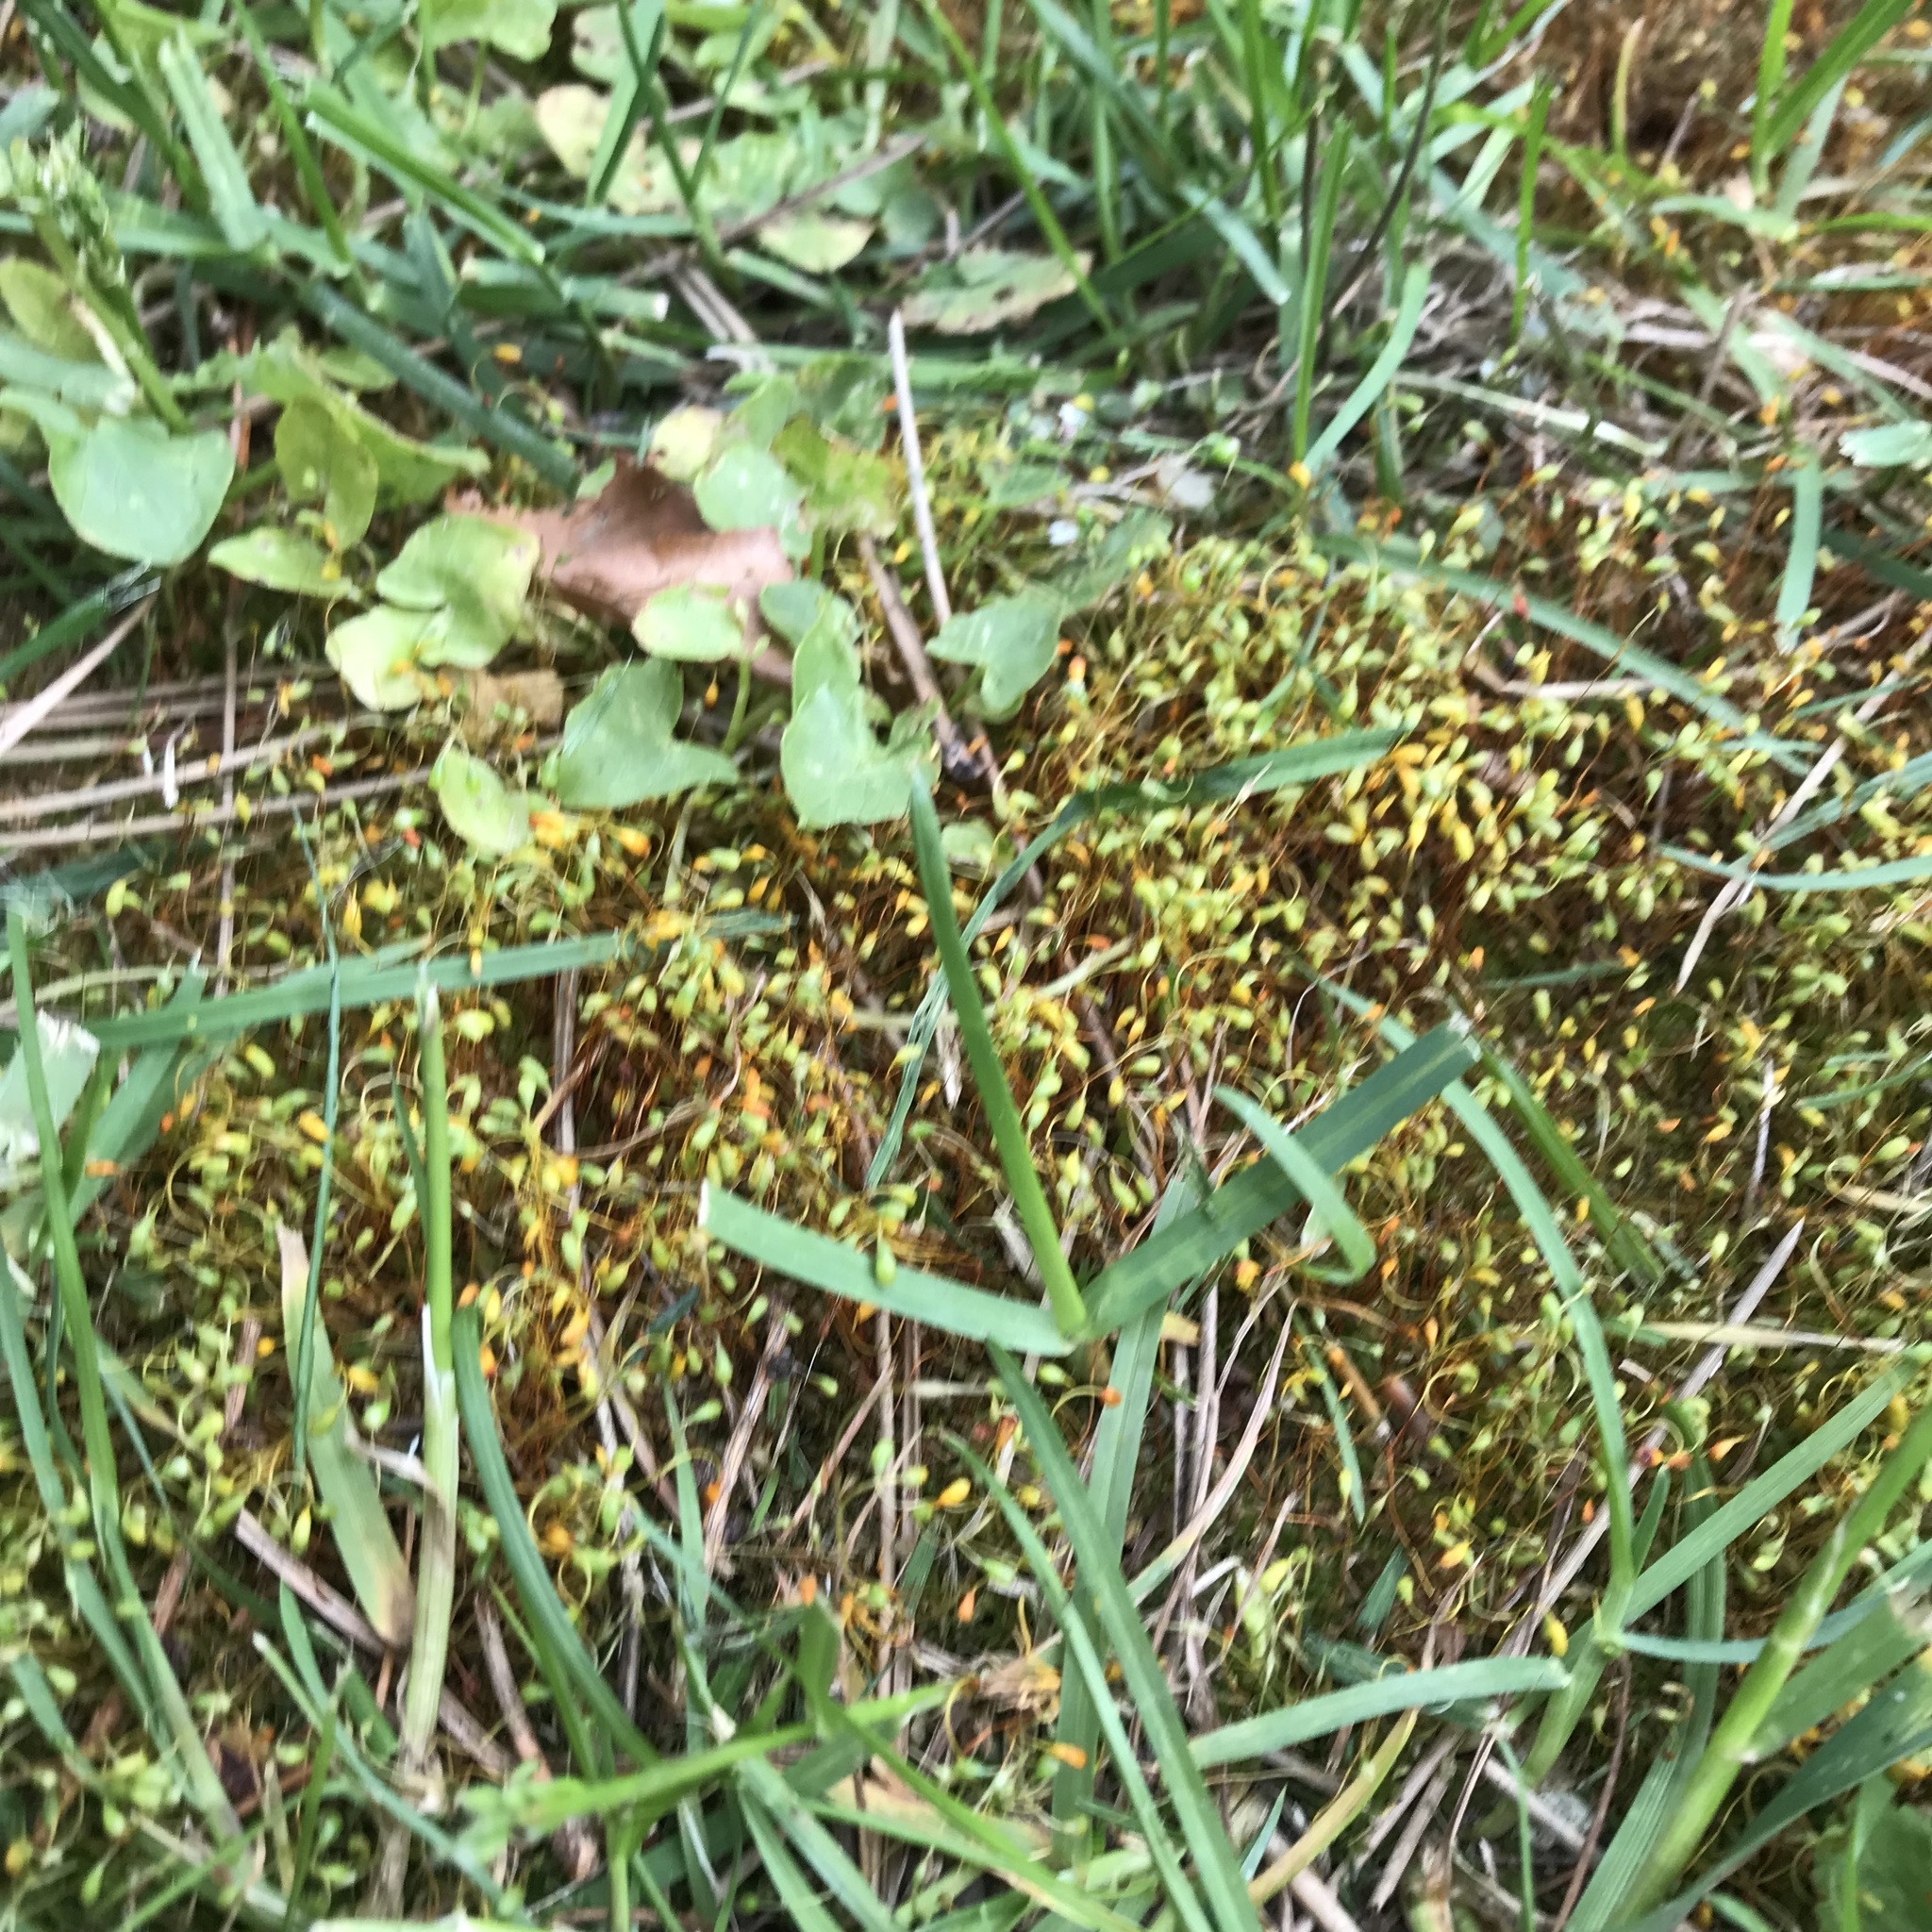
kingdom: Plantae
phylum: Bryophyta
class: Bryopsida
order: Funariales
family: Funariaceae
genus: Funaria
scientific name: Funaria hygrometrica
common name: Common cord moss
